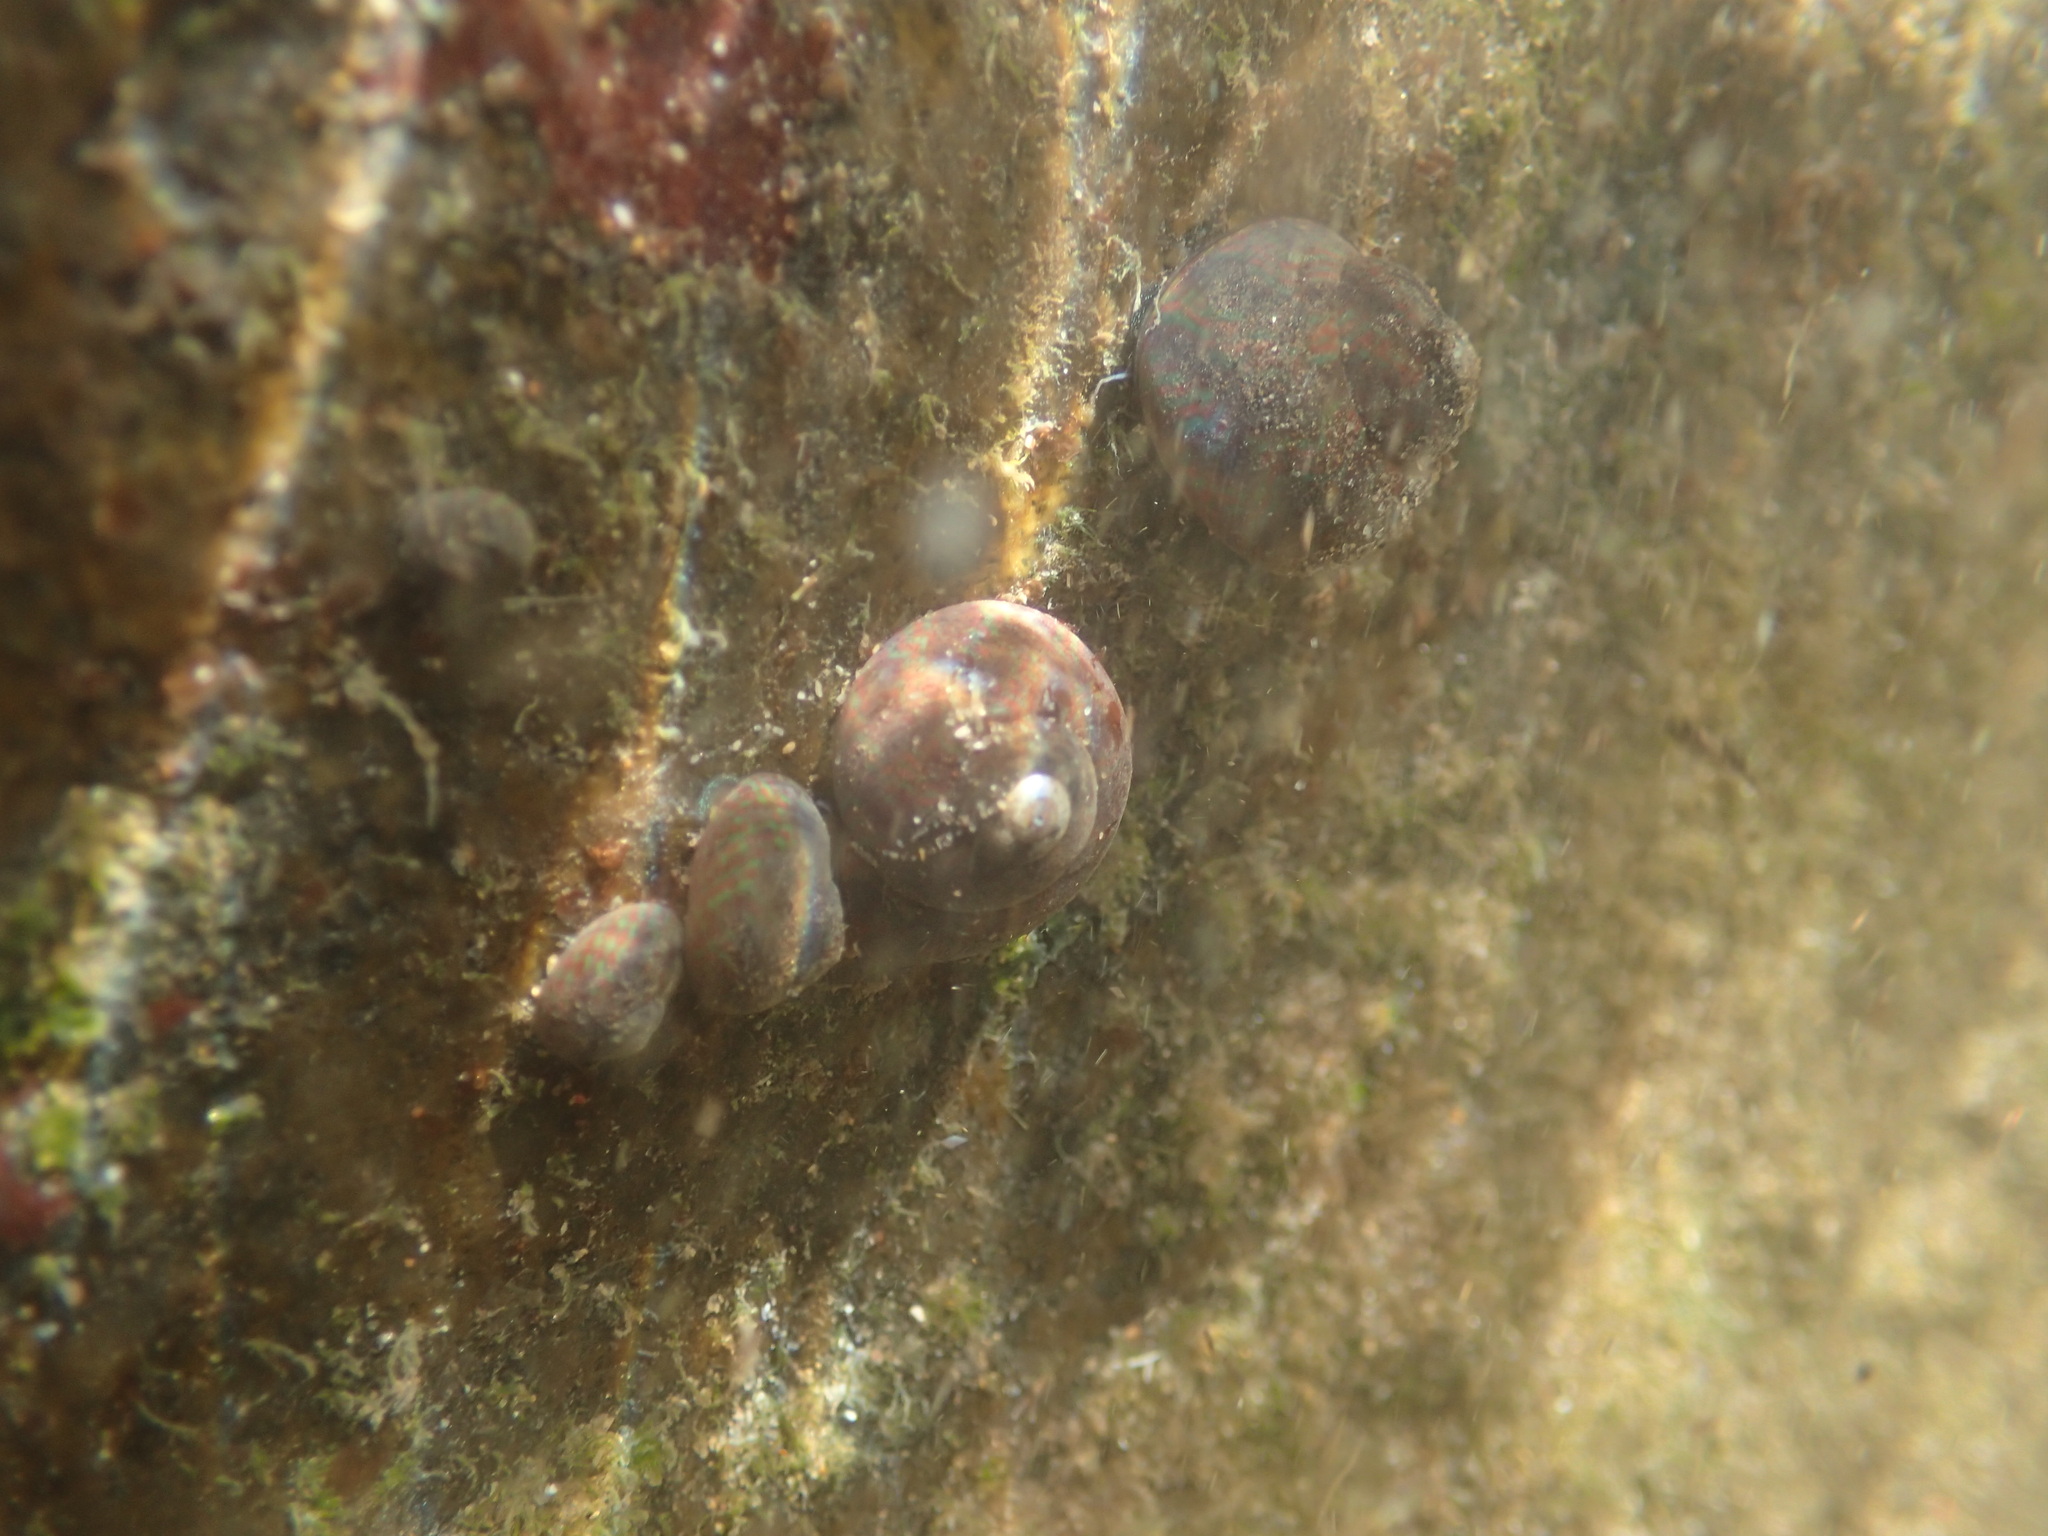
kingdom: Animalia
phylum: Mollusca
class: Gastropoda
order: Trochida
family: Trochidae
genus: Oxystele
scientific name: Oxystele tabularis
